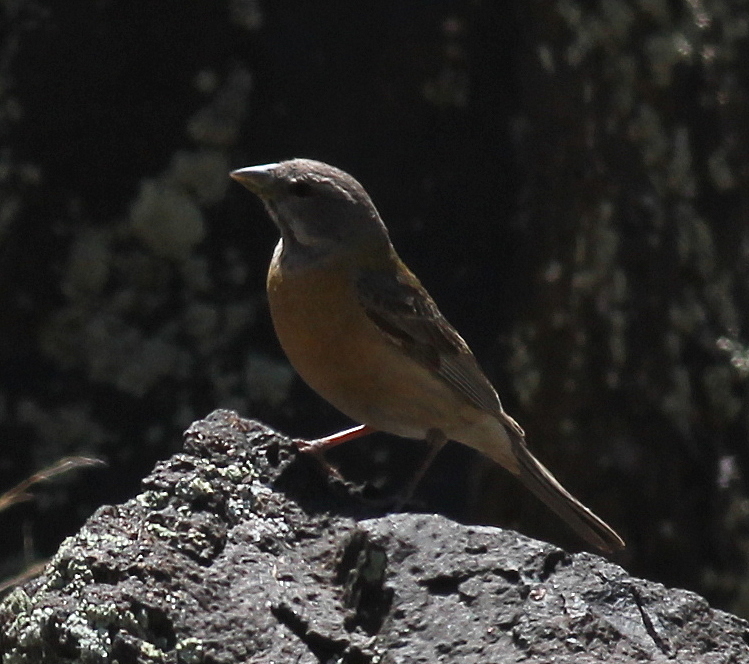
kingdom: Animalia
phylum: Chordata
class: Aves
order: Passeriformes
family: Thraupidae
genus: Phrygilus
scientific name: Phrygilus gayi
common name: Grey-hooded sierra finch
